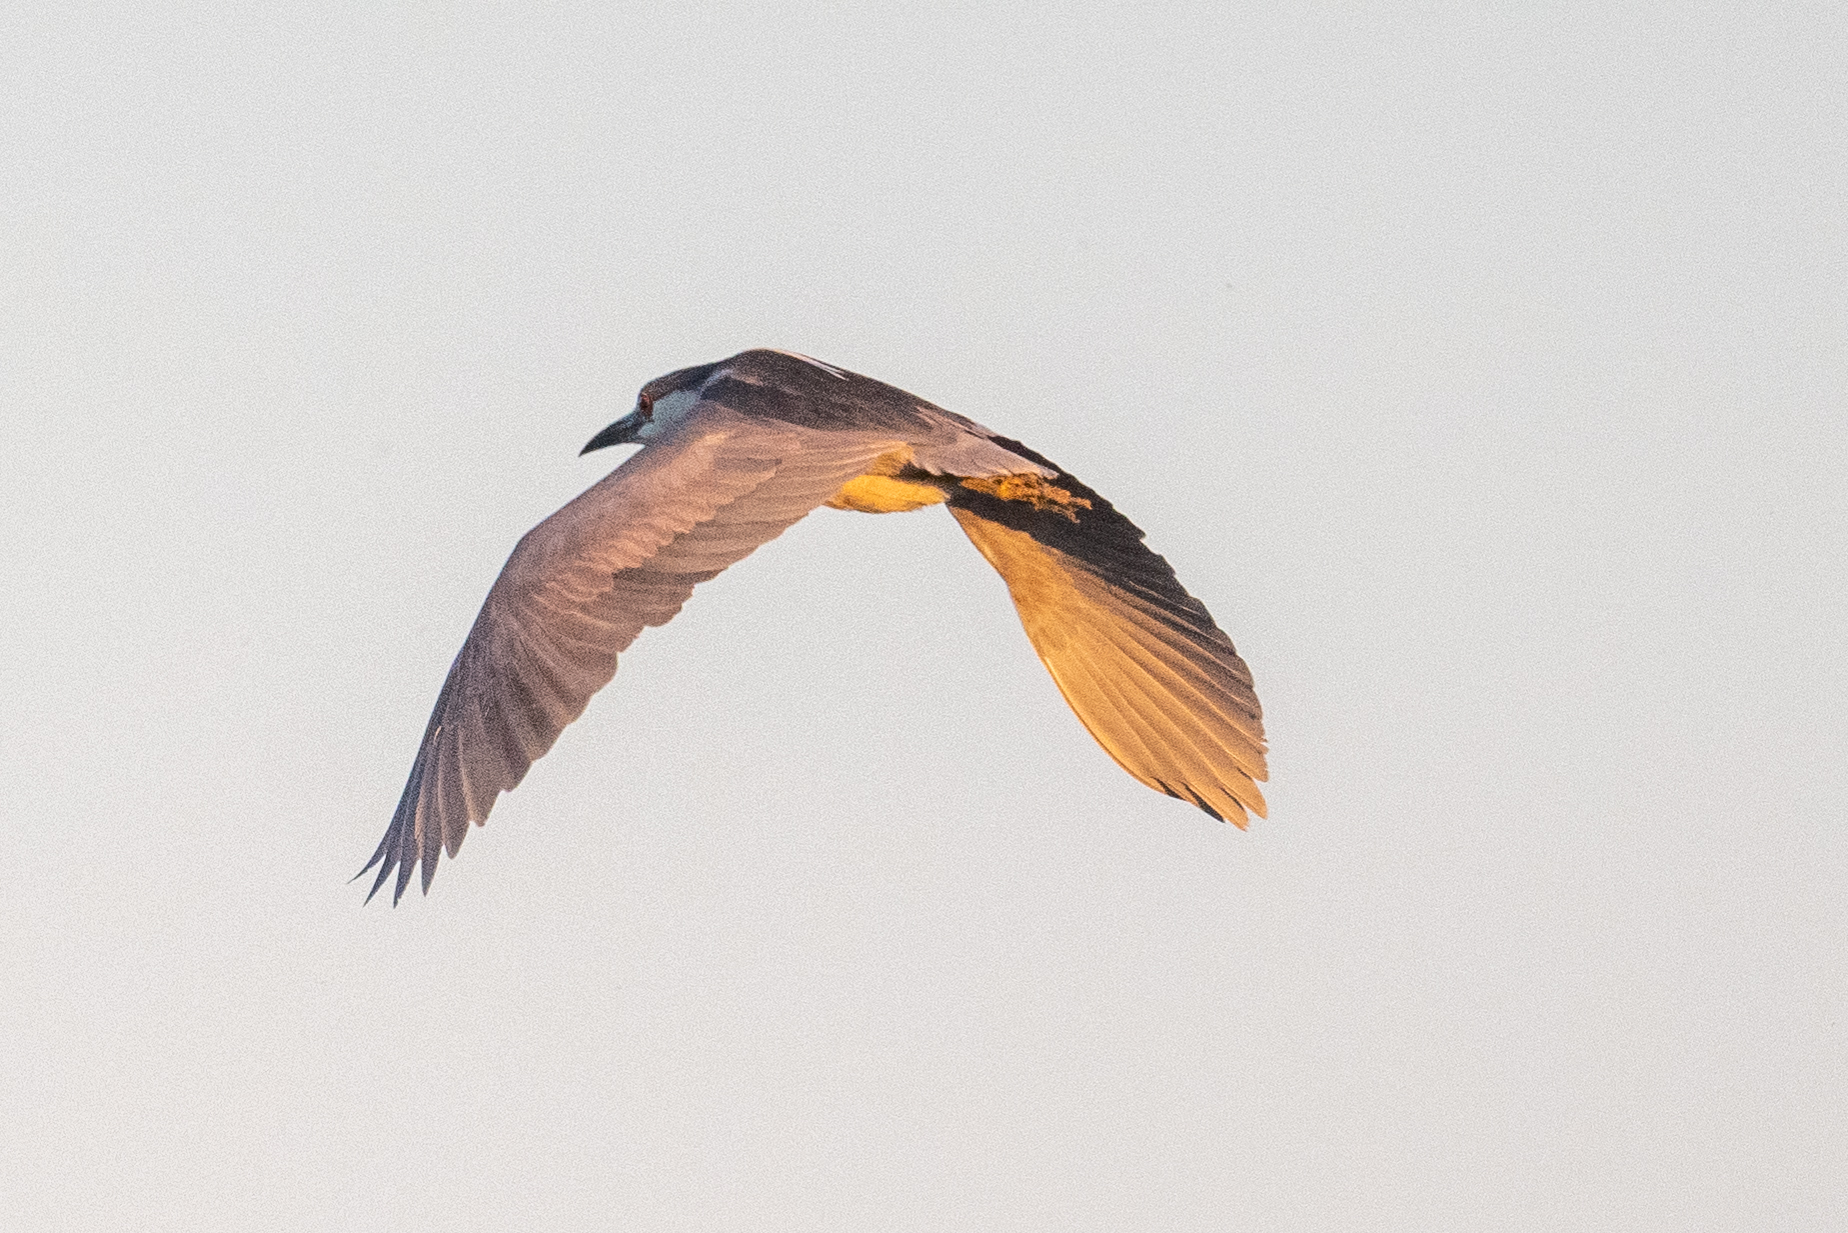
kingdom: Animalia
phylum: Chordata
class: Aves
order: Pelecaniformes
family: Ardeidae
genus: Nycticorax
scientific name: Nycticorax nycticorax
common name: Black-crowned night heron
